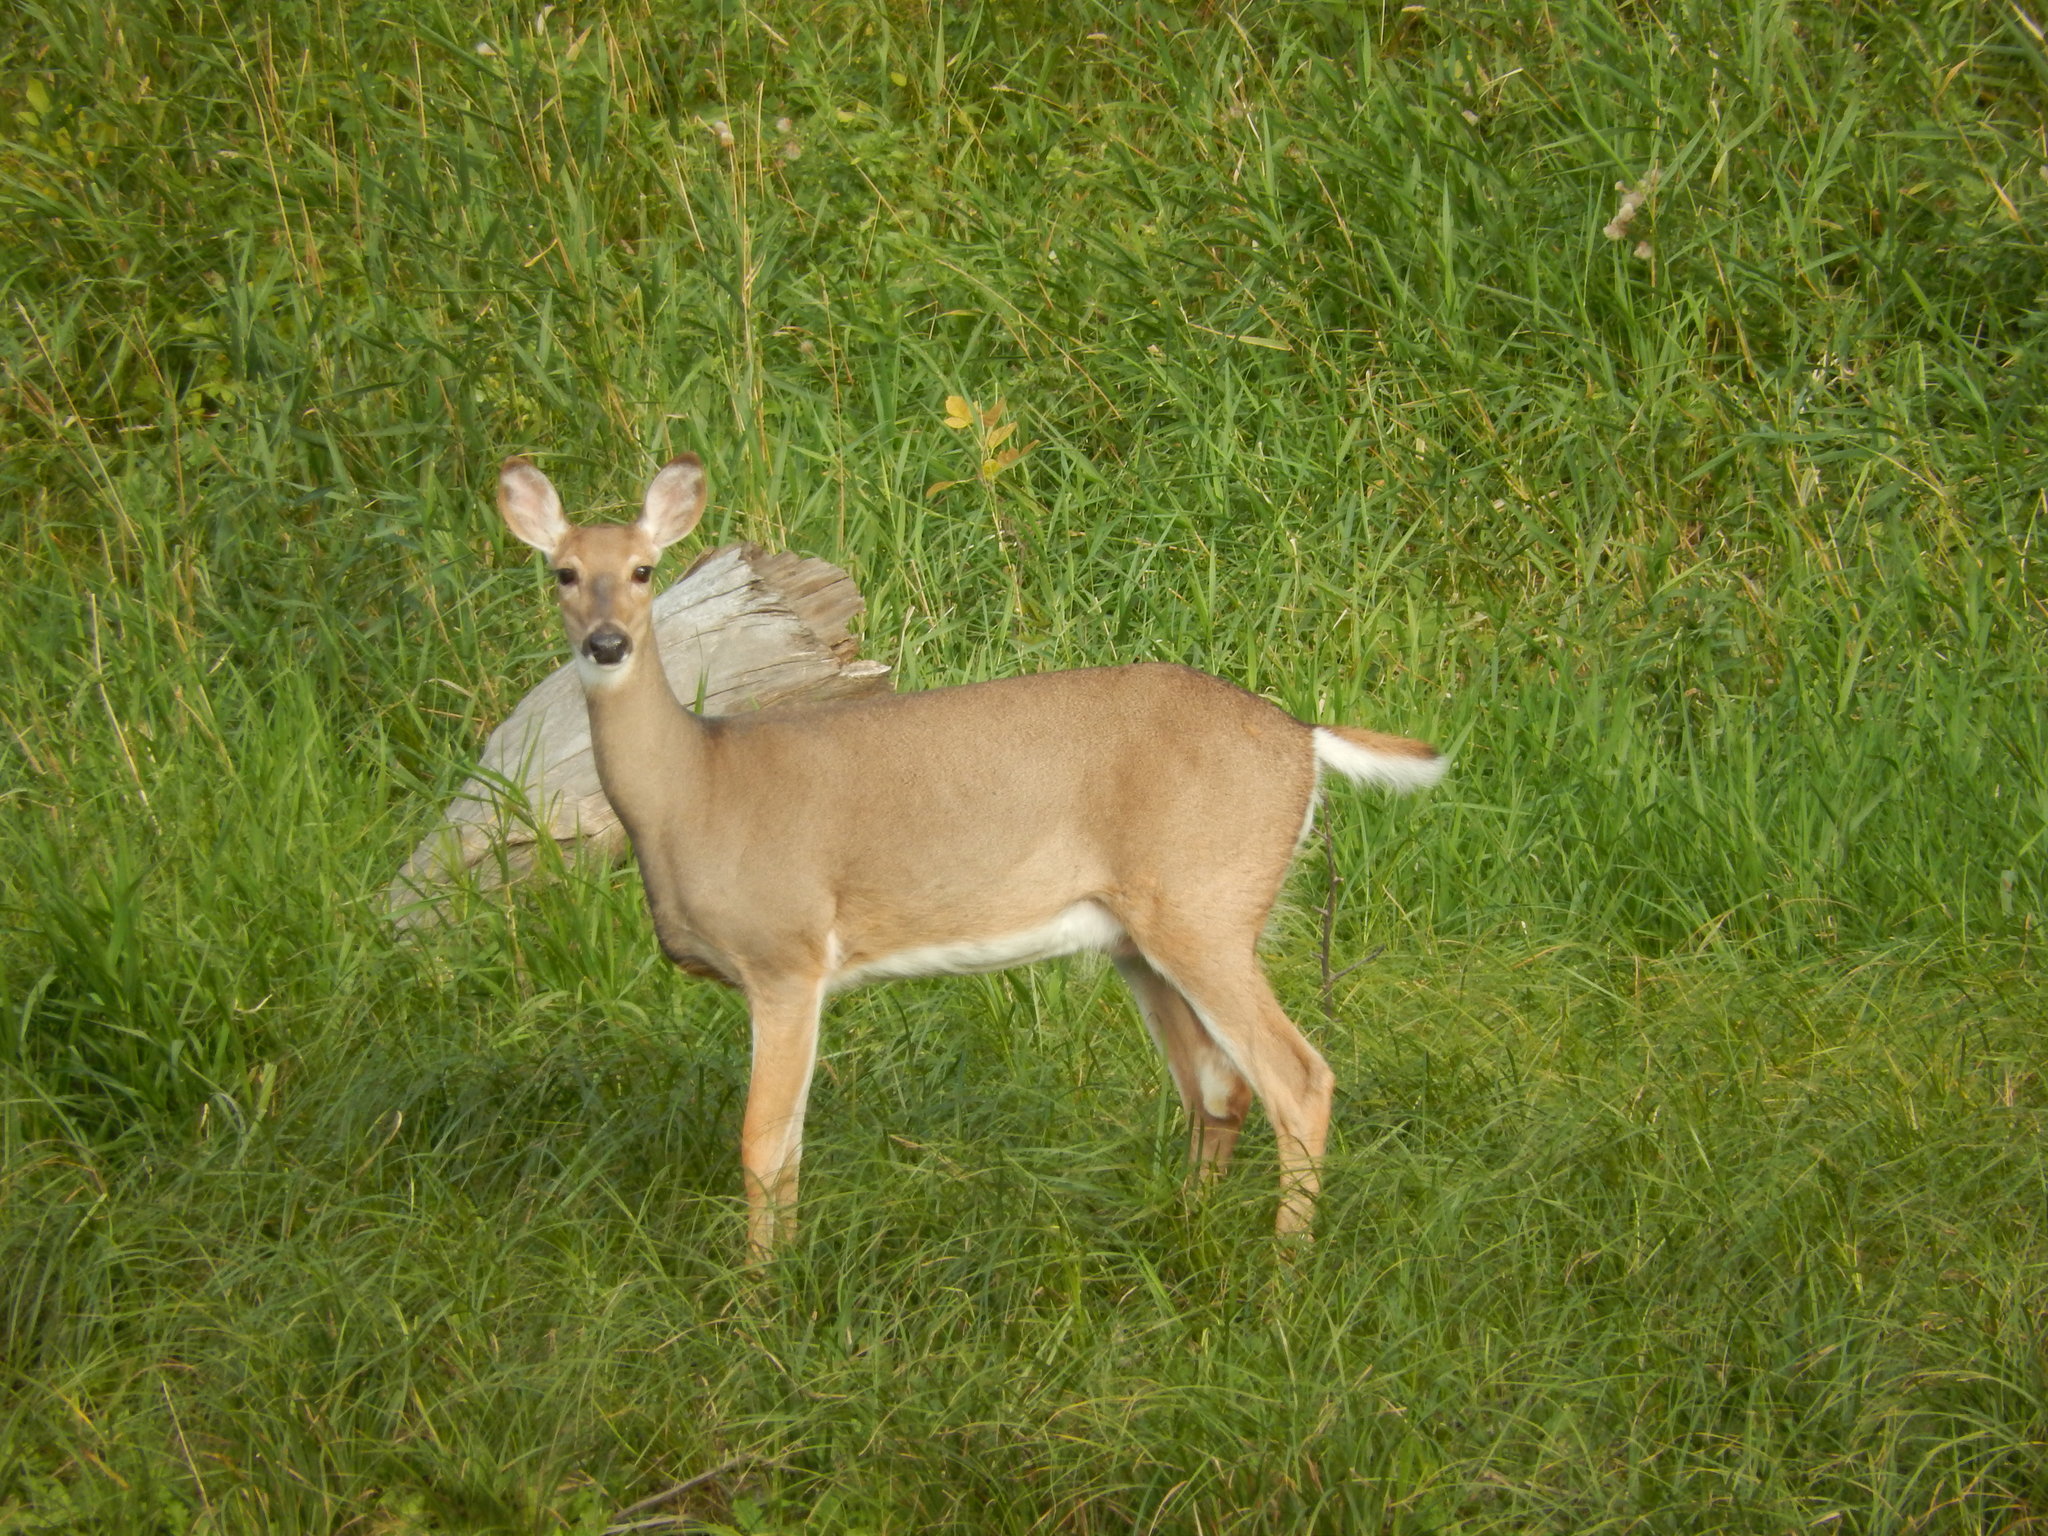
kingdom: Animalia
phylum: Chordata
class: Mammalia
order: Artiodactyla
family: Cervidae
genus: Odocoileus
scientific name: Odocoileus virginianus
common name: White-tailed deer
